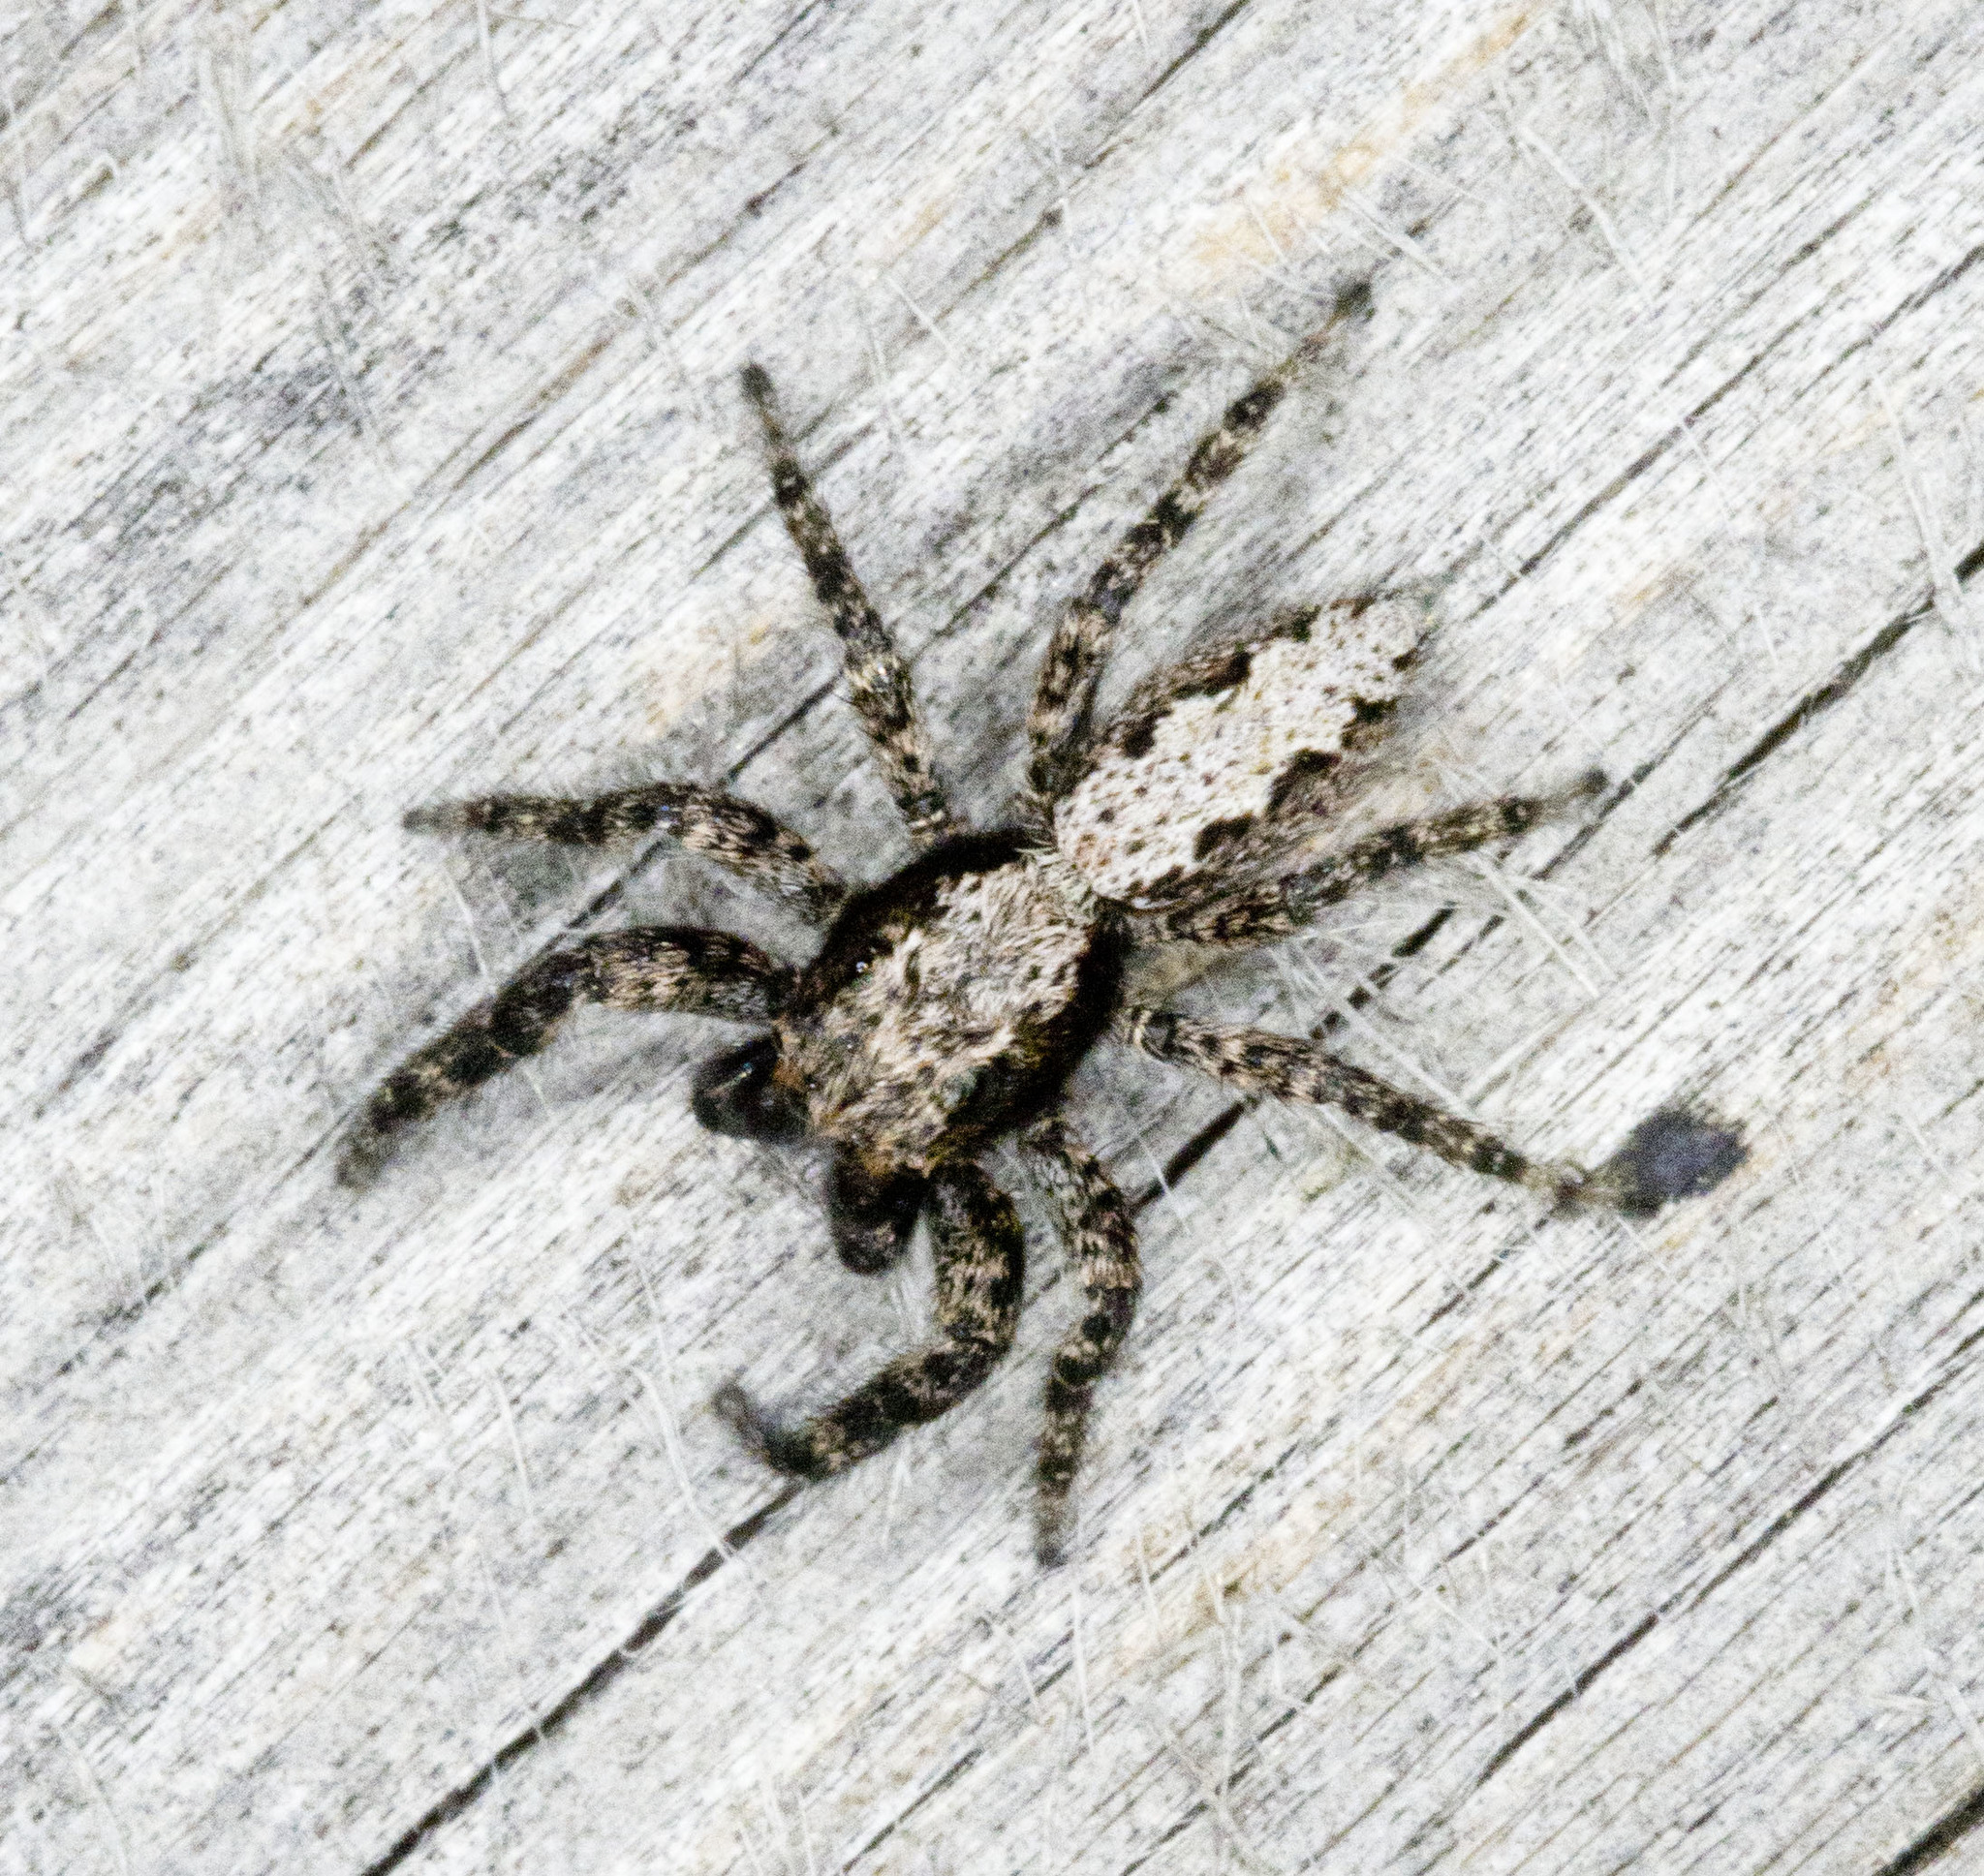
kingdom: Animalia
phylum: Arthropoda
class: Arachnida
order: Araneae
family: Salticidae
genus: Platycryptus
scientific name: Platycryptus californicus
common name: Jumping spiders
